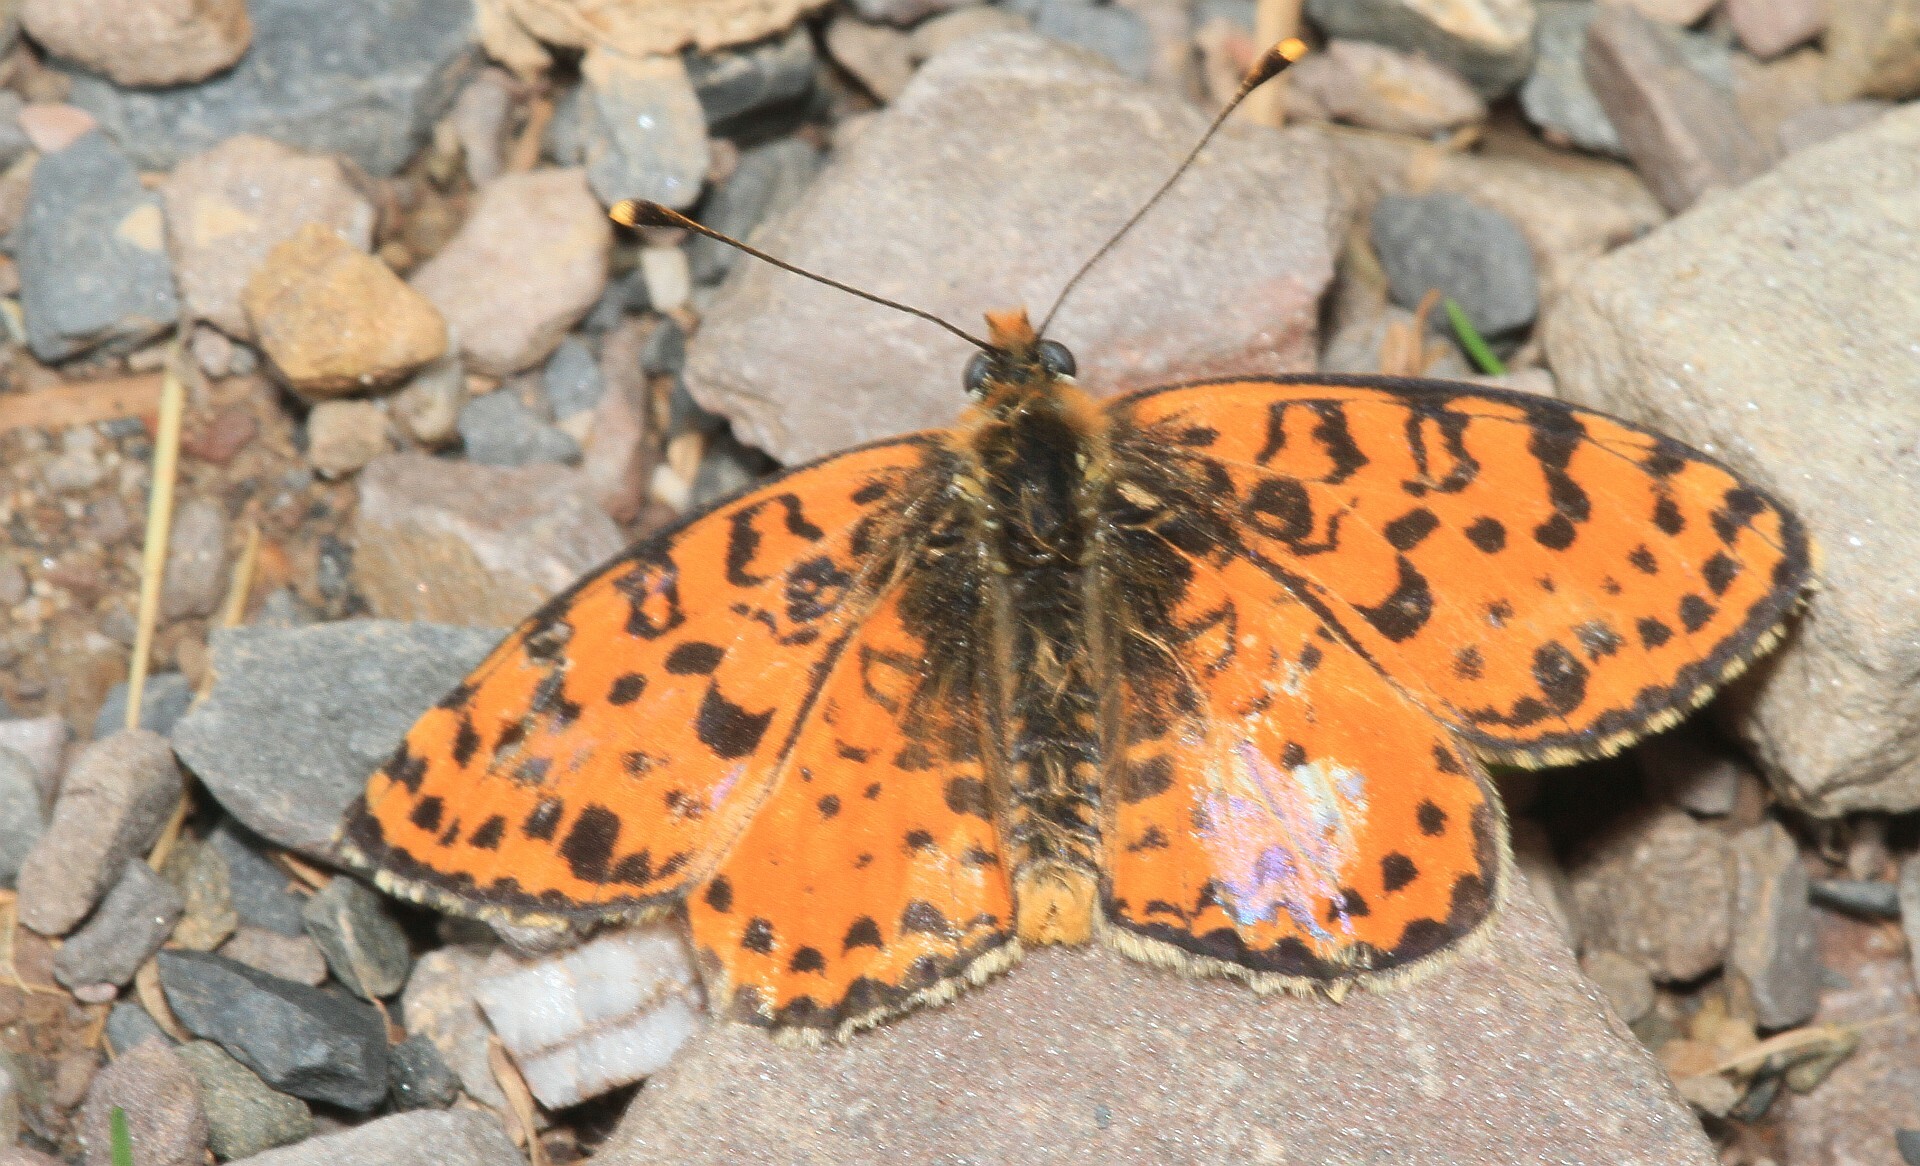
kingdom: Animalia
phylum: Arthropoda
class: Insecta
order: Lepidoptera
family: Nymphalidae
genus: Melitaea
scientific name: Melitaea didyma
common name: Spotted fritillary
